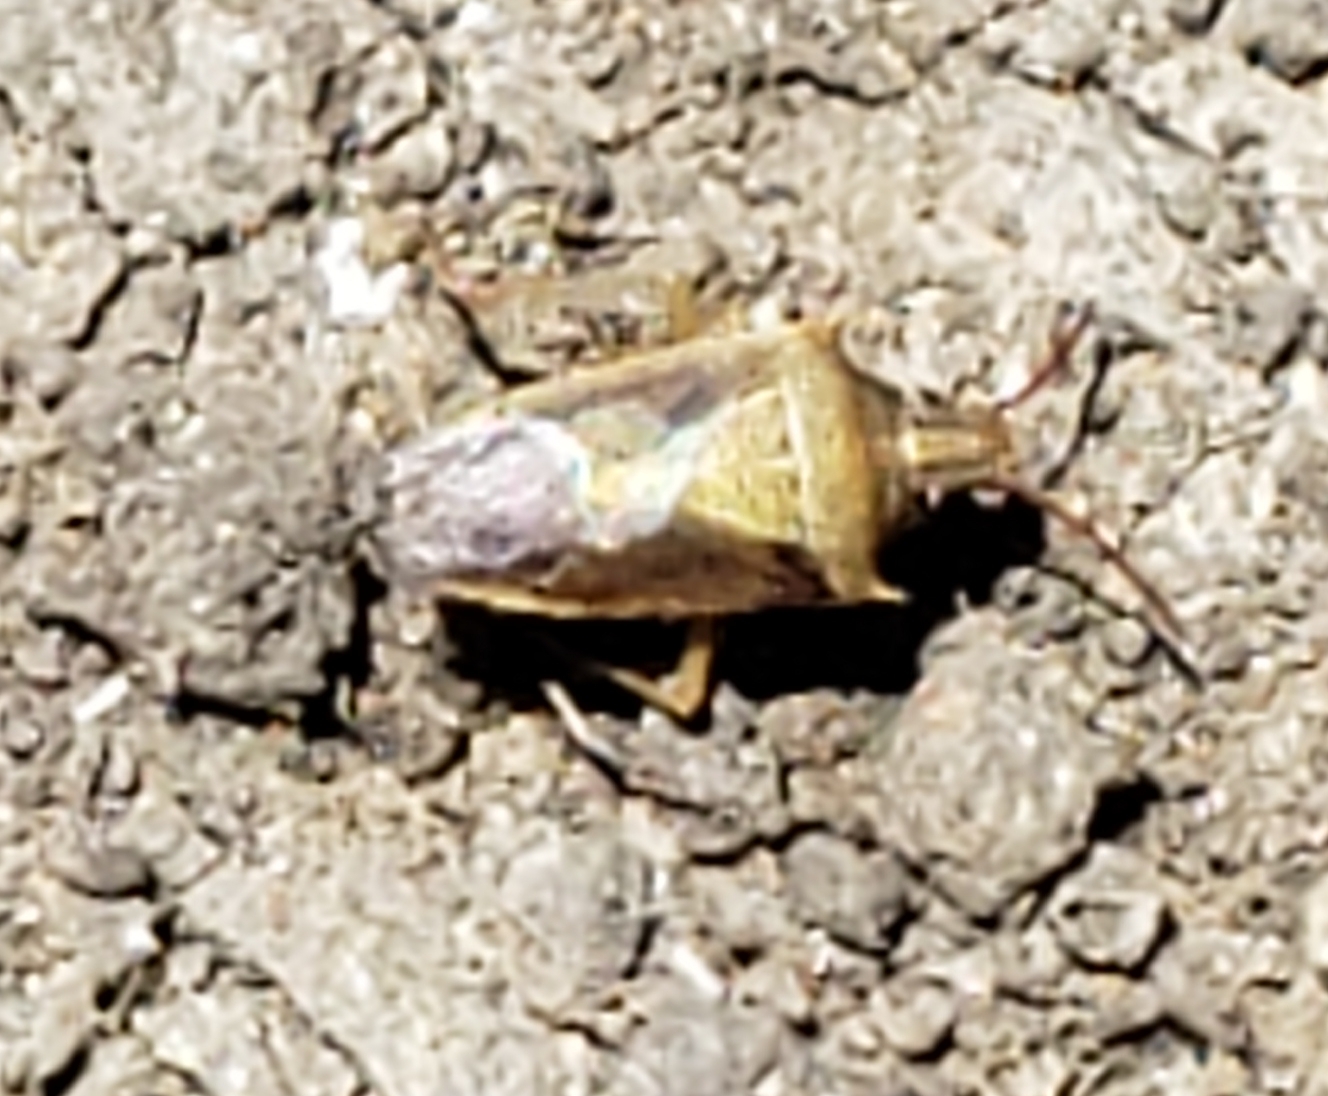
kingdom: Animalia
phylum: Arthropoda
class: Insecta
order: Hemiptera
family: Pentatomidae
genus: Oebalus
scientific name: Oebalus pugnax
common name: Rice stink bug
